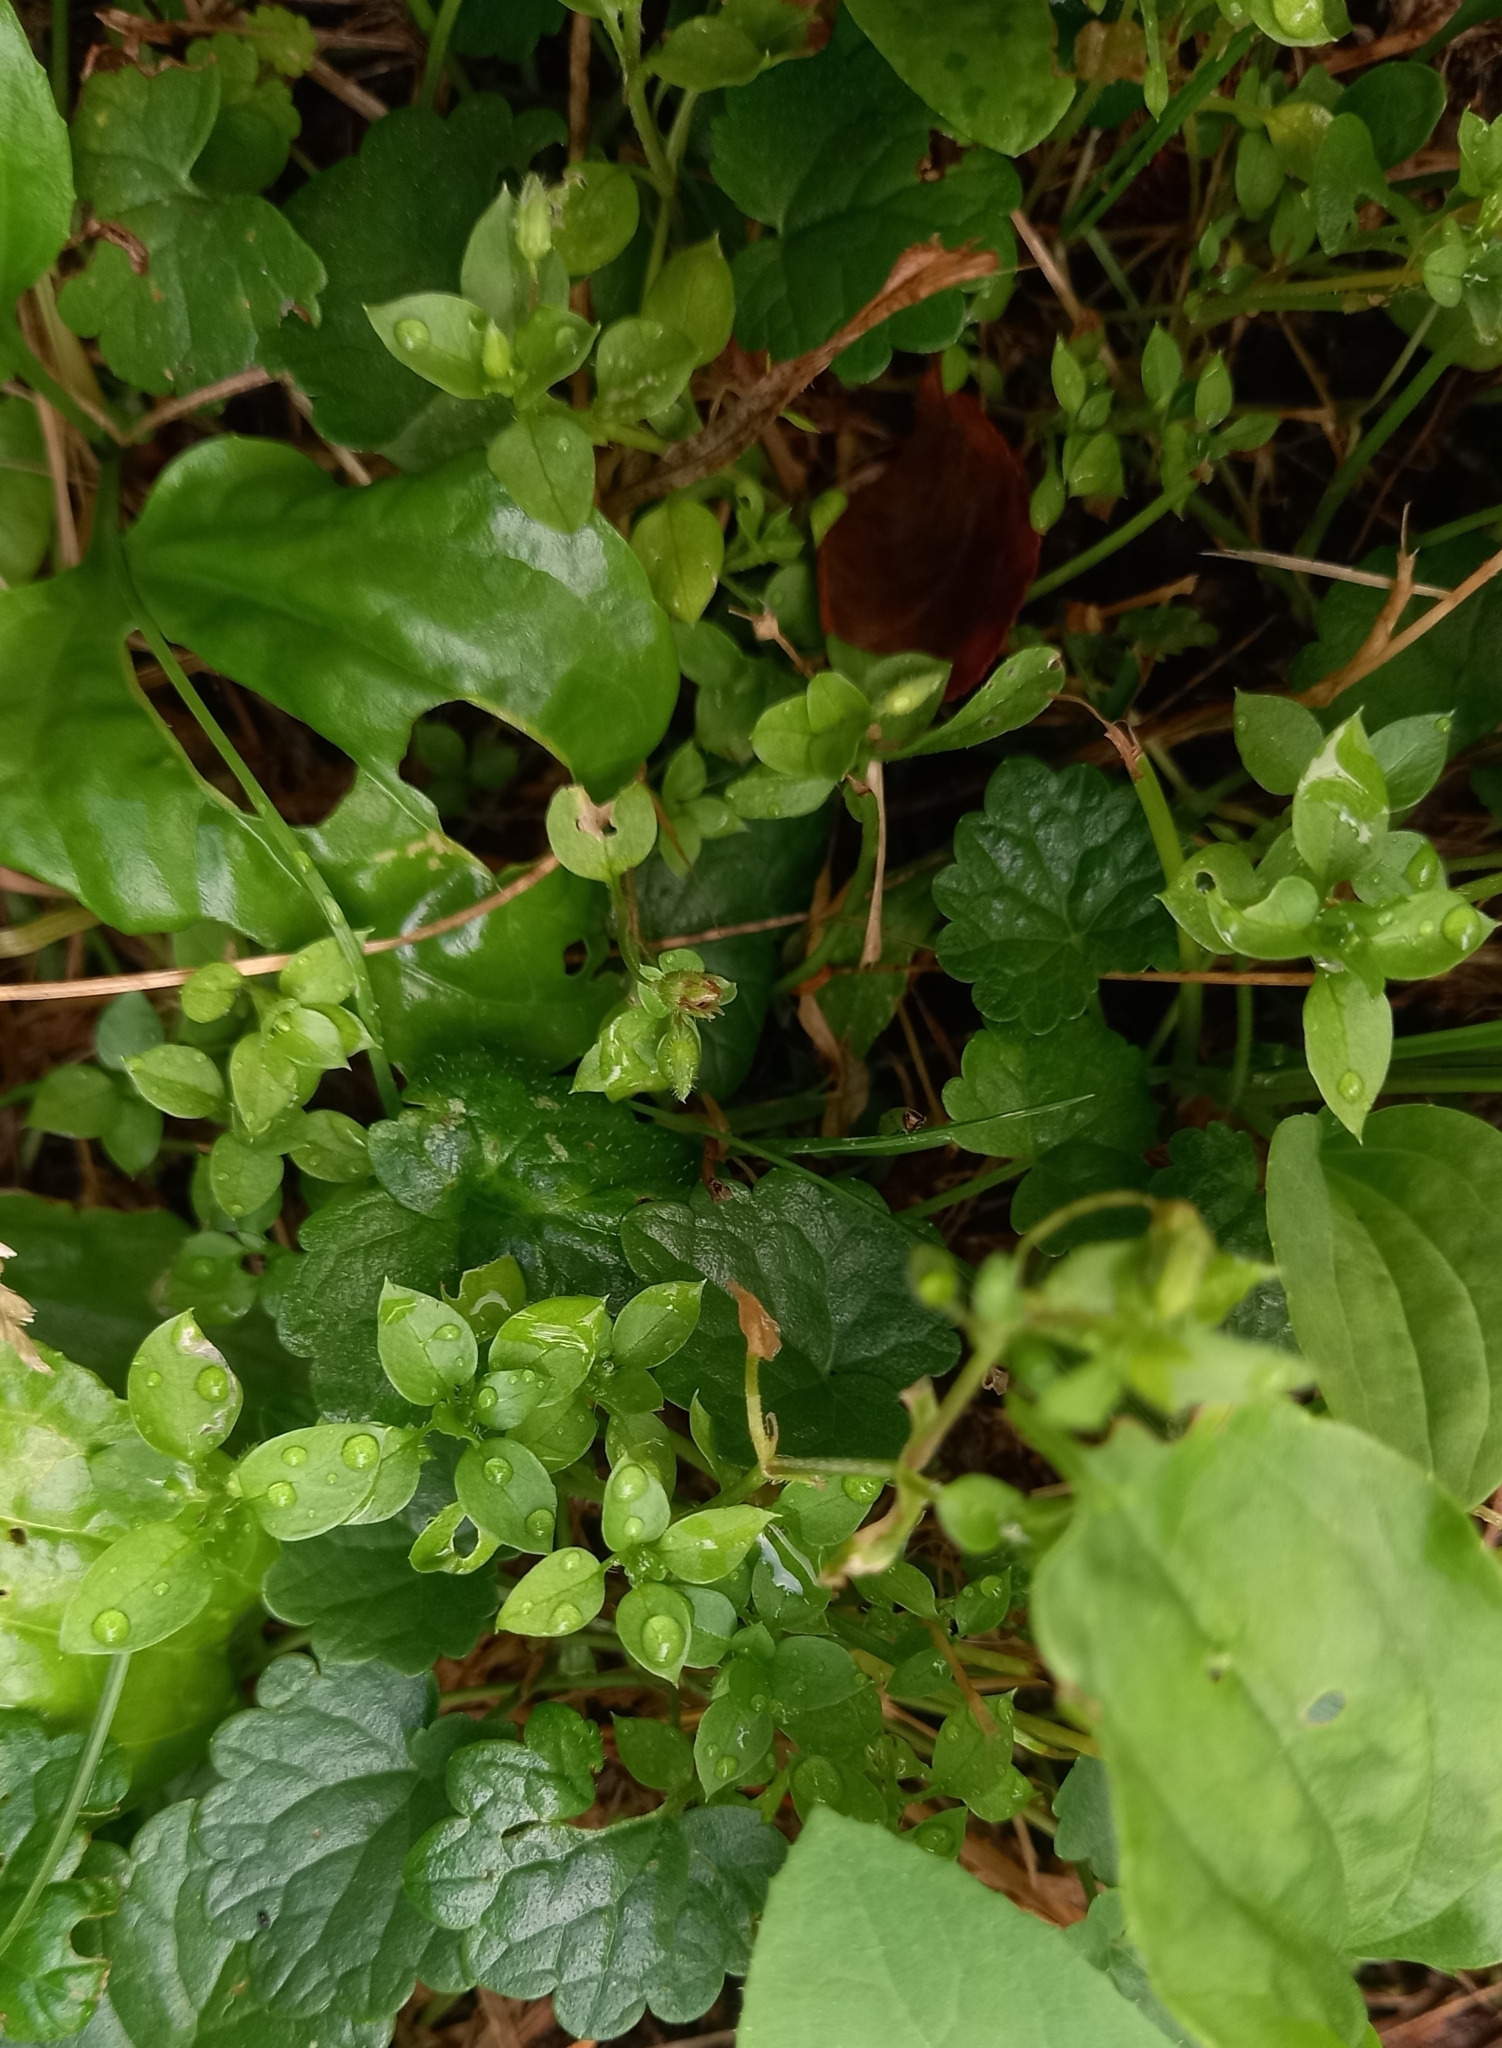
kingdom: Plantae
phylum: Tracheophyta
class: Magnoliopsida
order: Caryophyllales
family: Caryophyllaceae
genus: Stellaria
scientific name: Stellaria media
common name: Common chickweed
